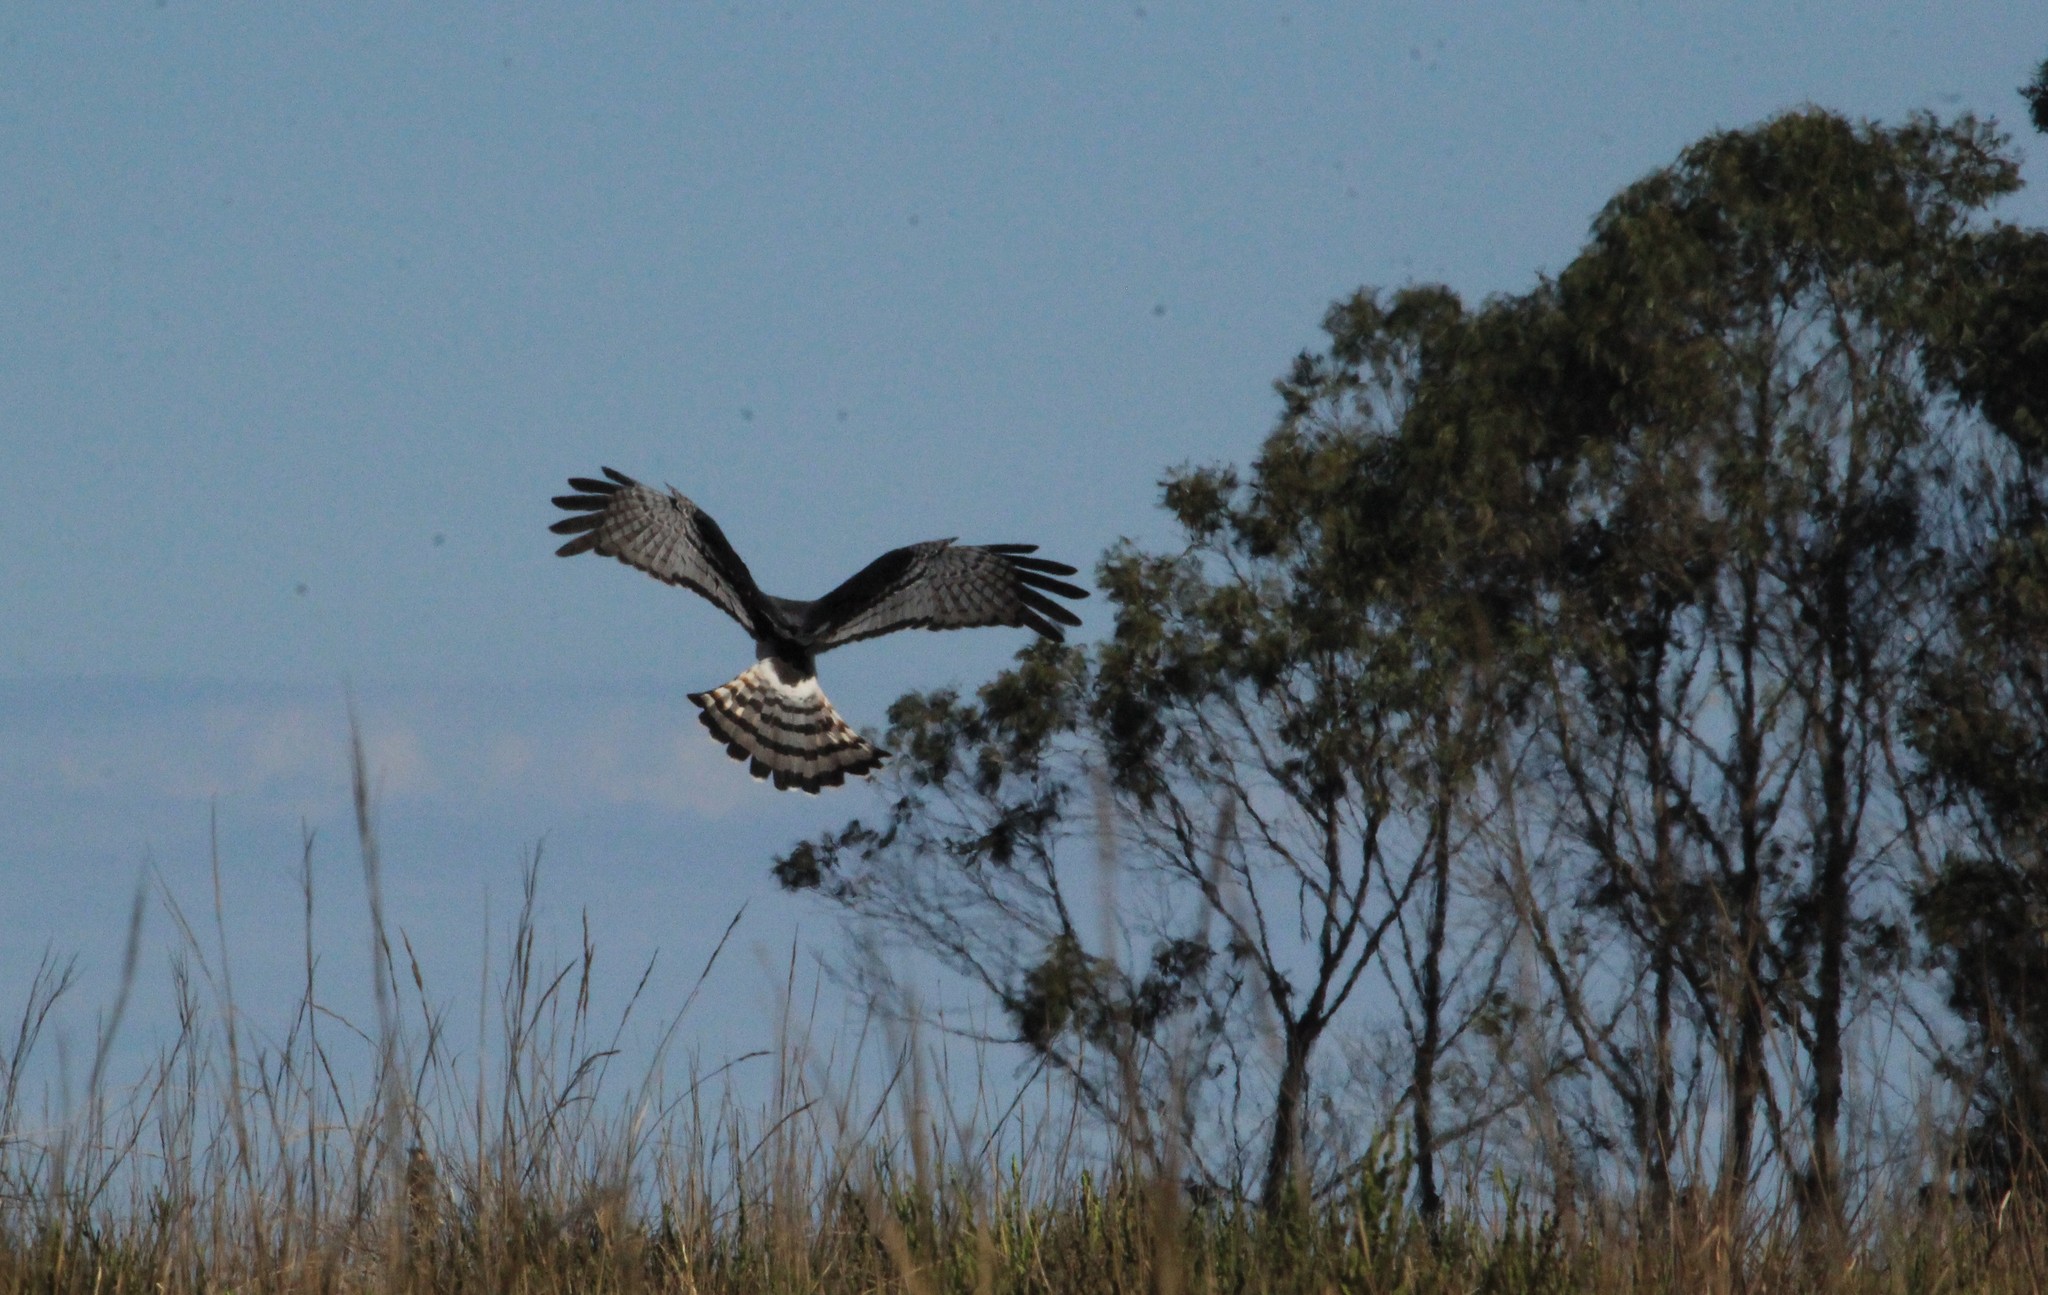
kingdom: Animalia
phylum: Chordata
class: Aves
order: Accipitriformes
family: Accipitridae
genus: Circus
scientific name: Circus buffoni
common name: Long-winged harrier
